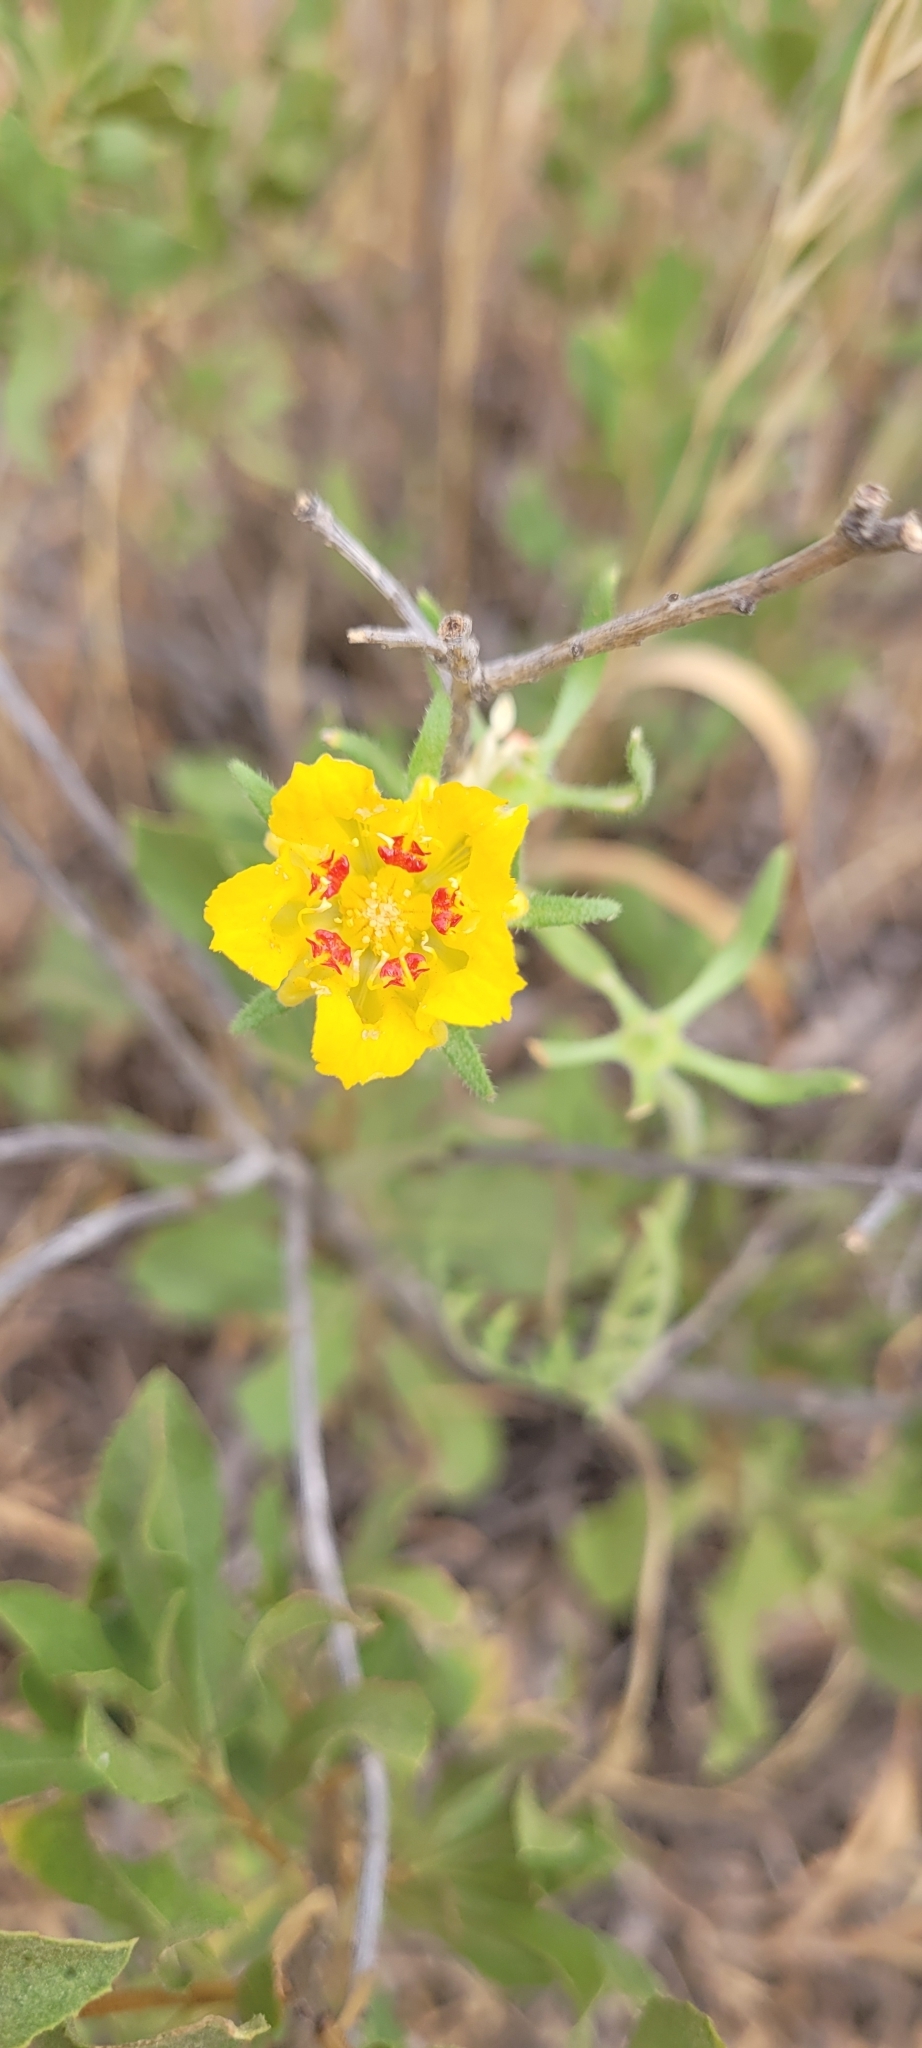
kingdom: Plantae
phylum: Tracheophyta
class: Magnoliopsida
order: Cornales
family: Loasaceae
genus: Scyphanthus
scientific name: Scyphanthus elegans
